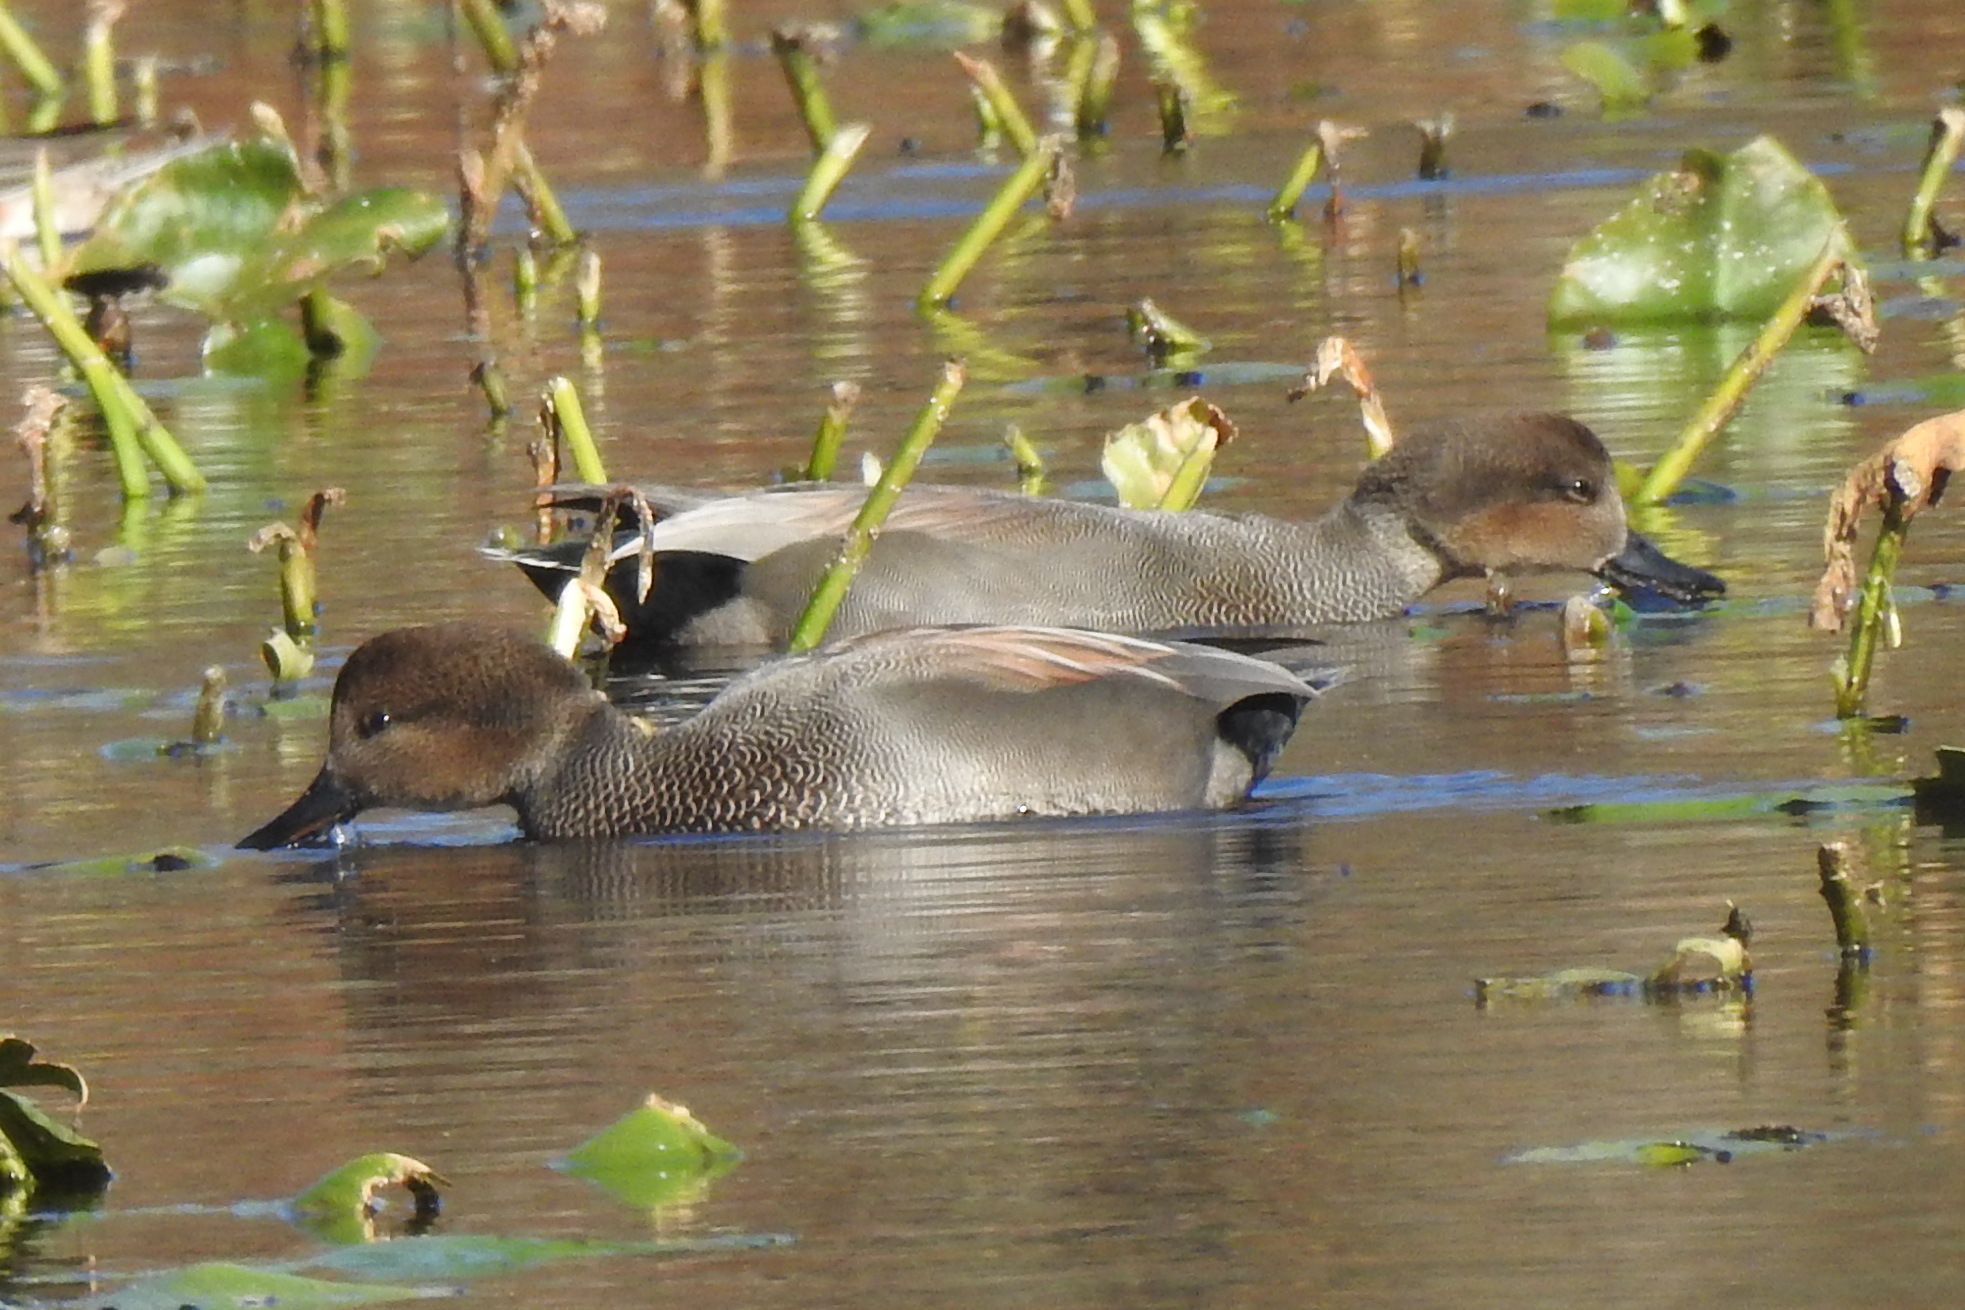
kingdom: Animalia
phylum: Chordata
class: Aves
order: Anseriformes
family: Anatidae
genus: Mareca
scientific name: Mareca strepera
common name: Gadwall
